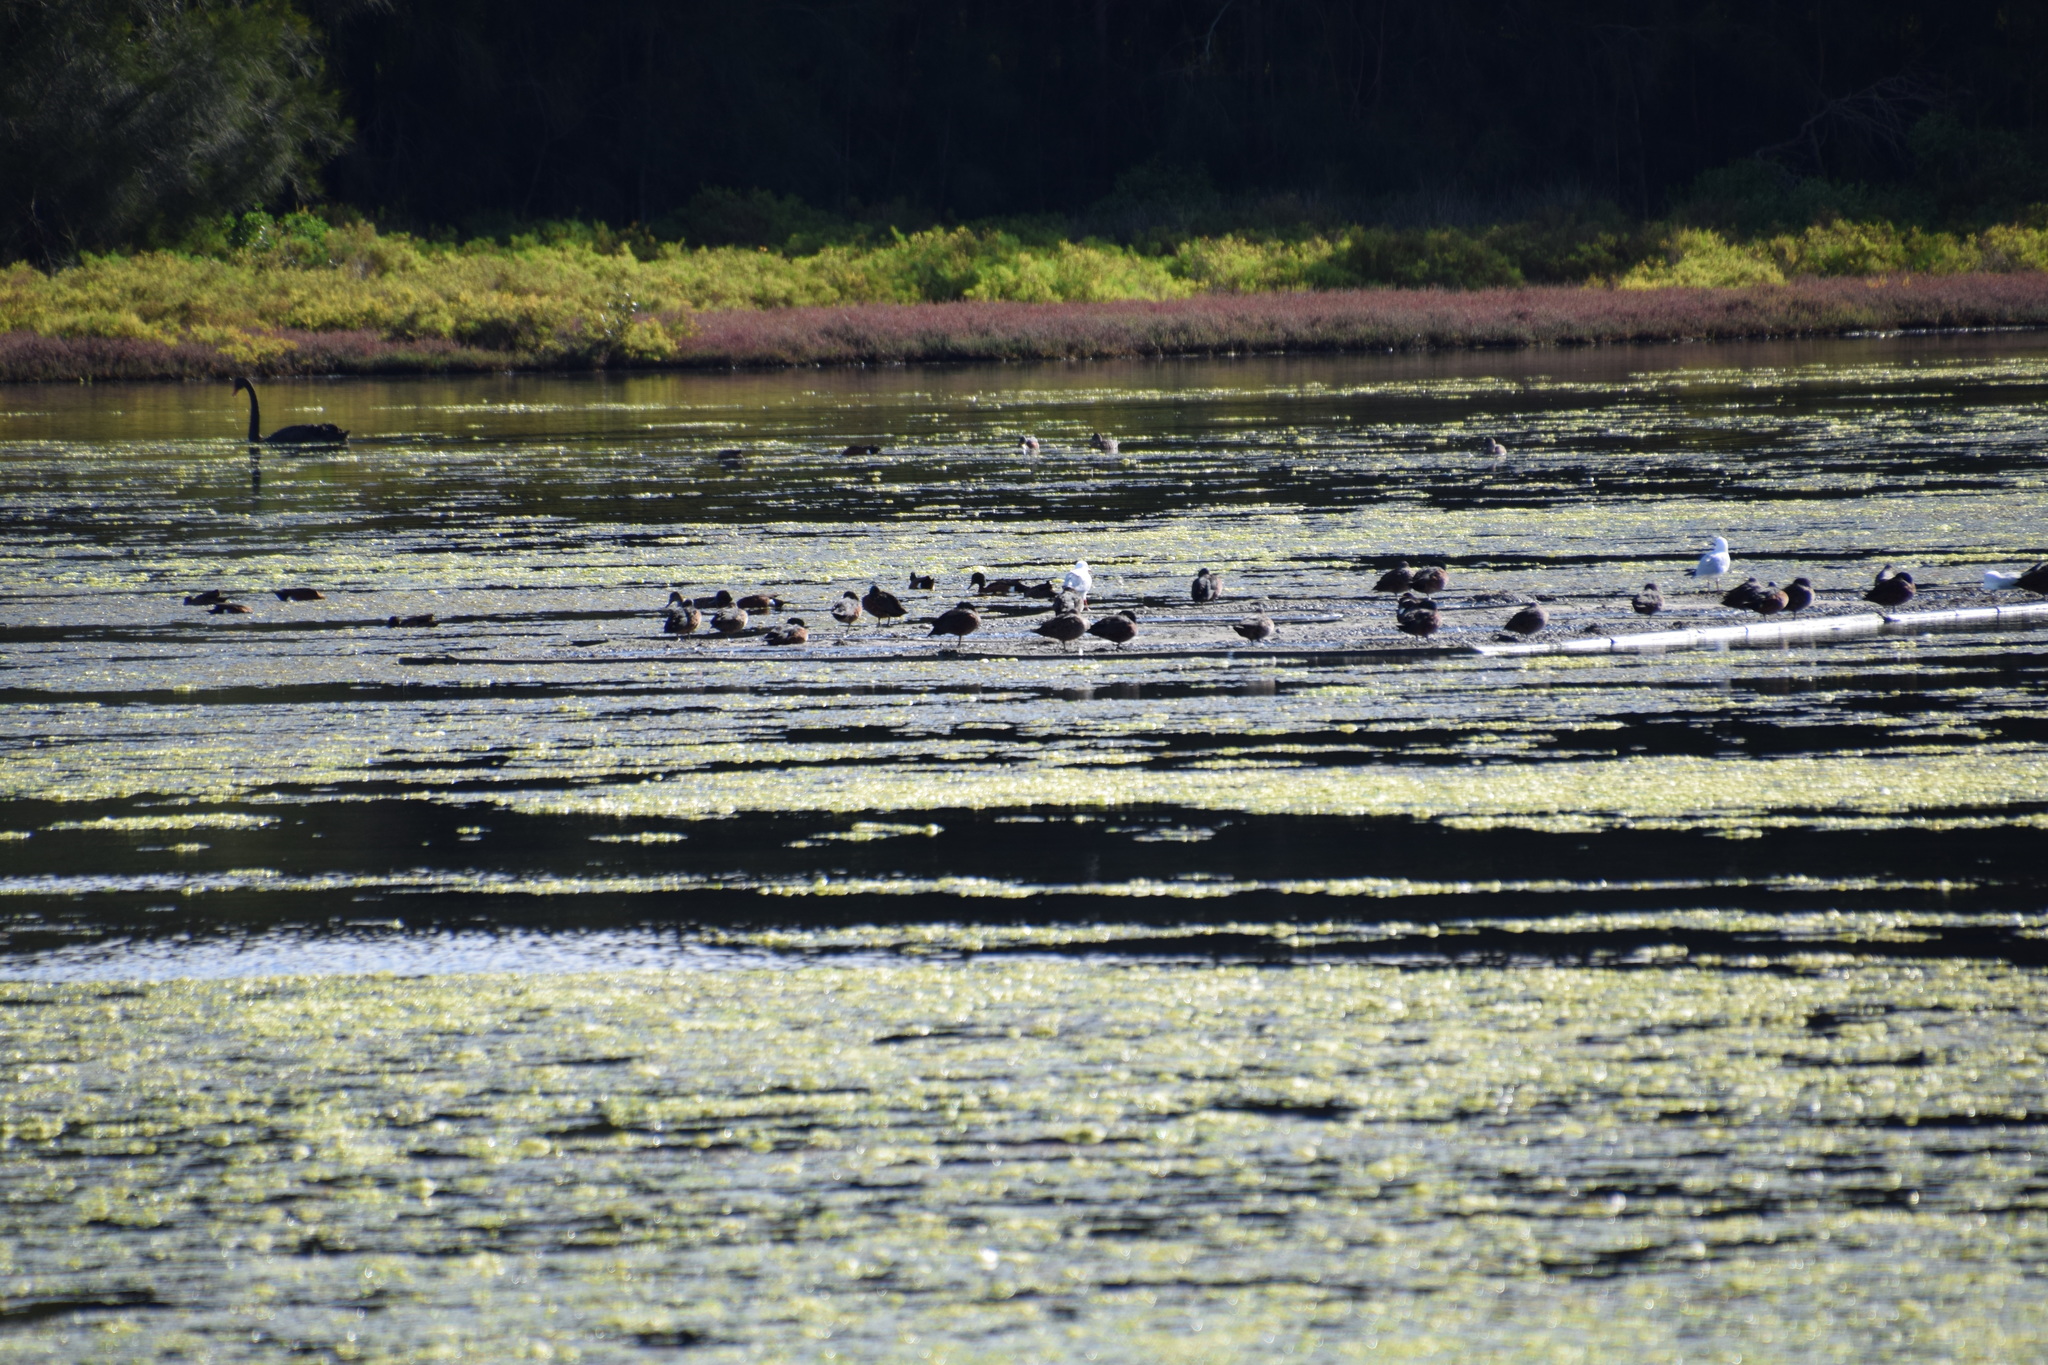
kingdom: Animalia
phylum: Chordata
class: Aves
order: Charadriiformes
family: Laridae
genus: Chroicocephalus
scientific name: Chroicocephalus novaehollandiae
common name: Silver gull
